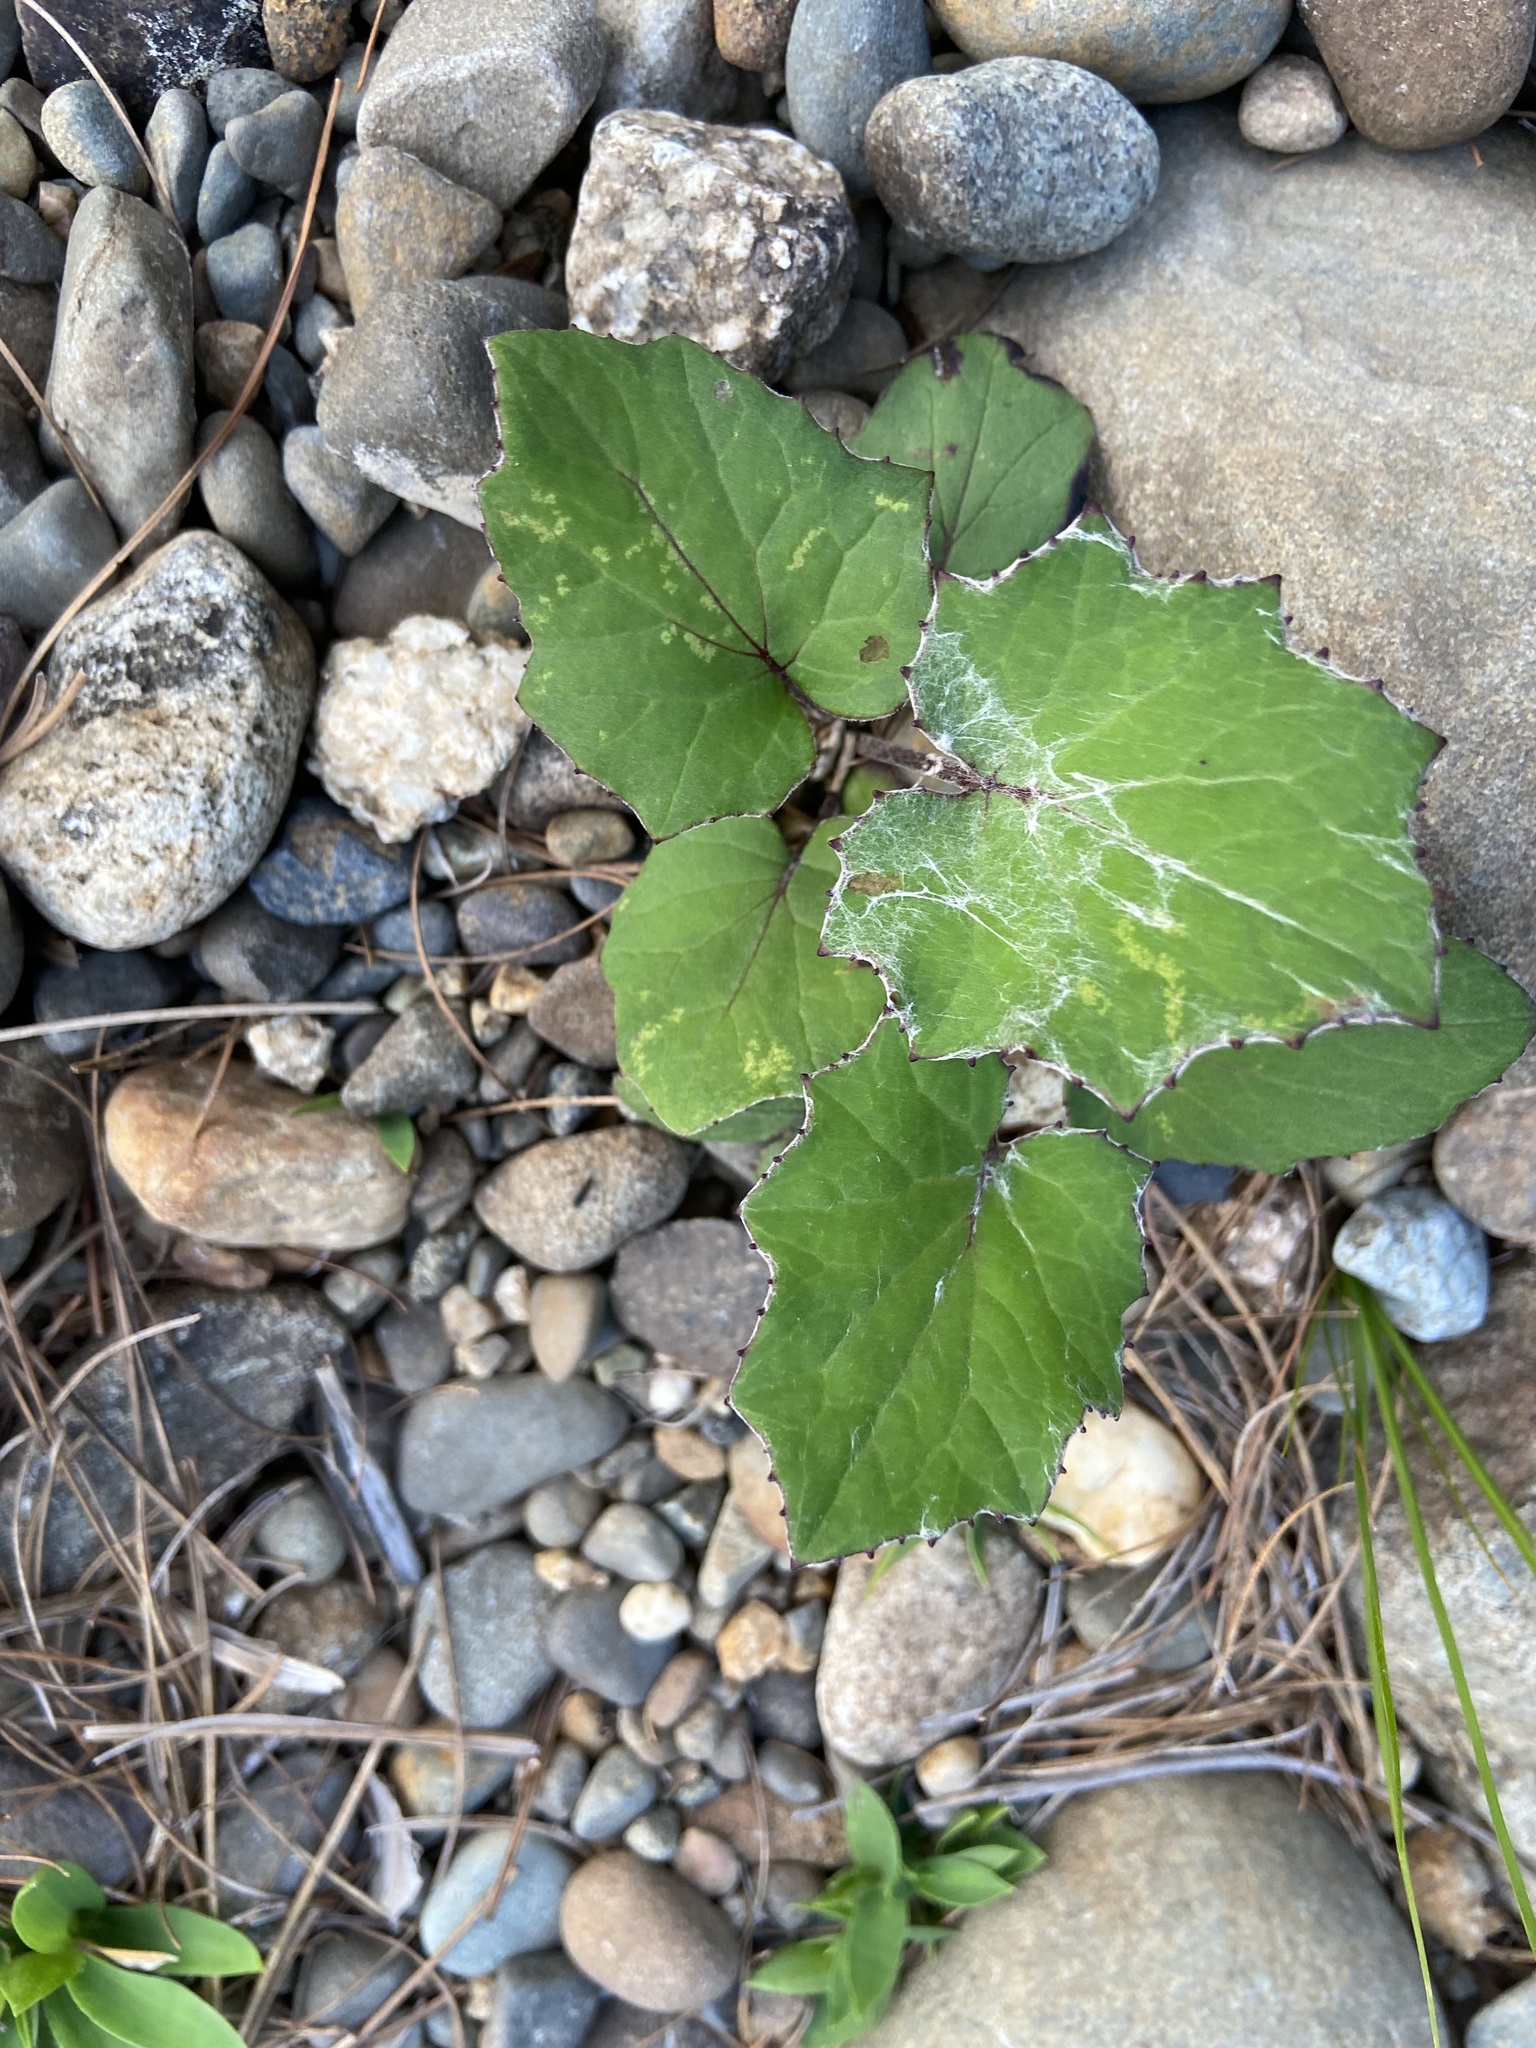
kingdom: Plantae
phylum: Tracheophyta
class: Magnoliopsida
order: Asterales
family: Asteraceae
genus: Tussilago
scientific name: Tussilago farfara
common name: Coltsfoot
